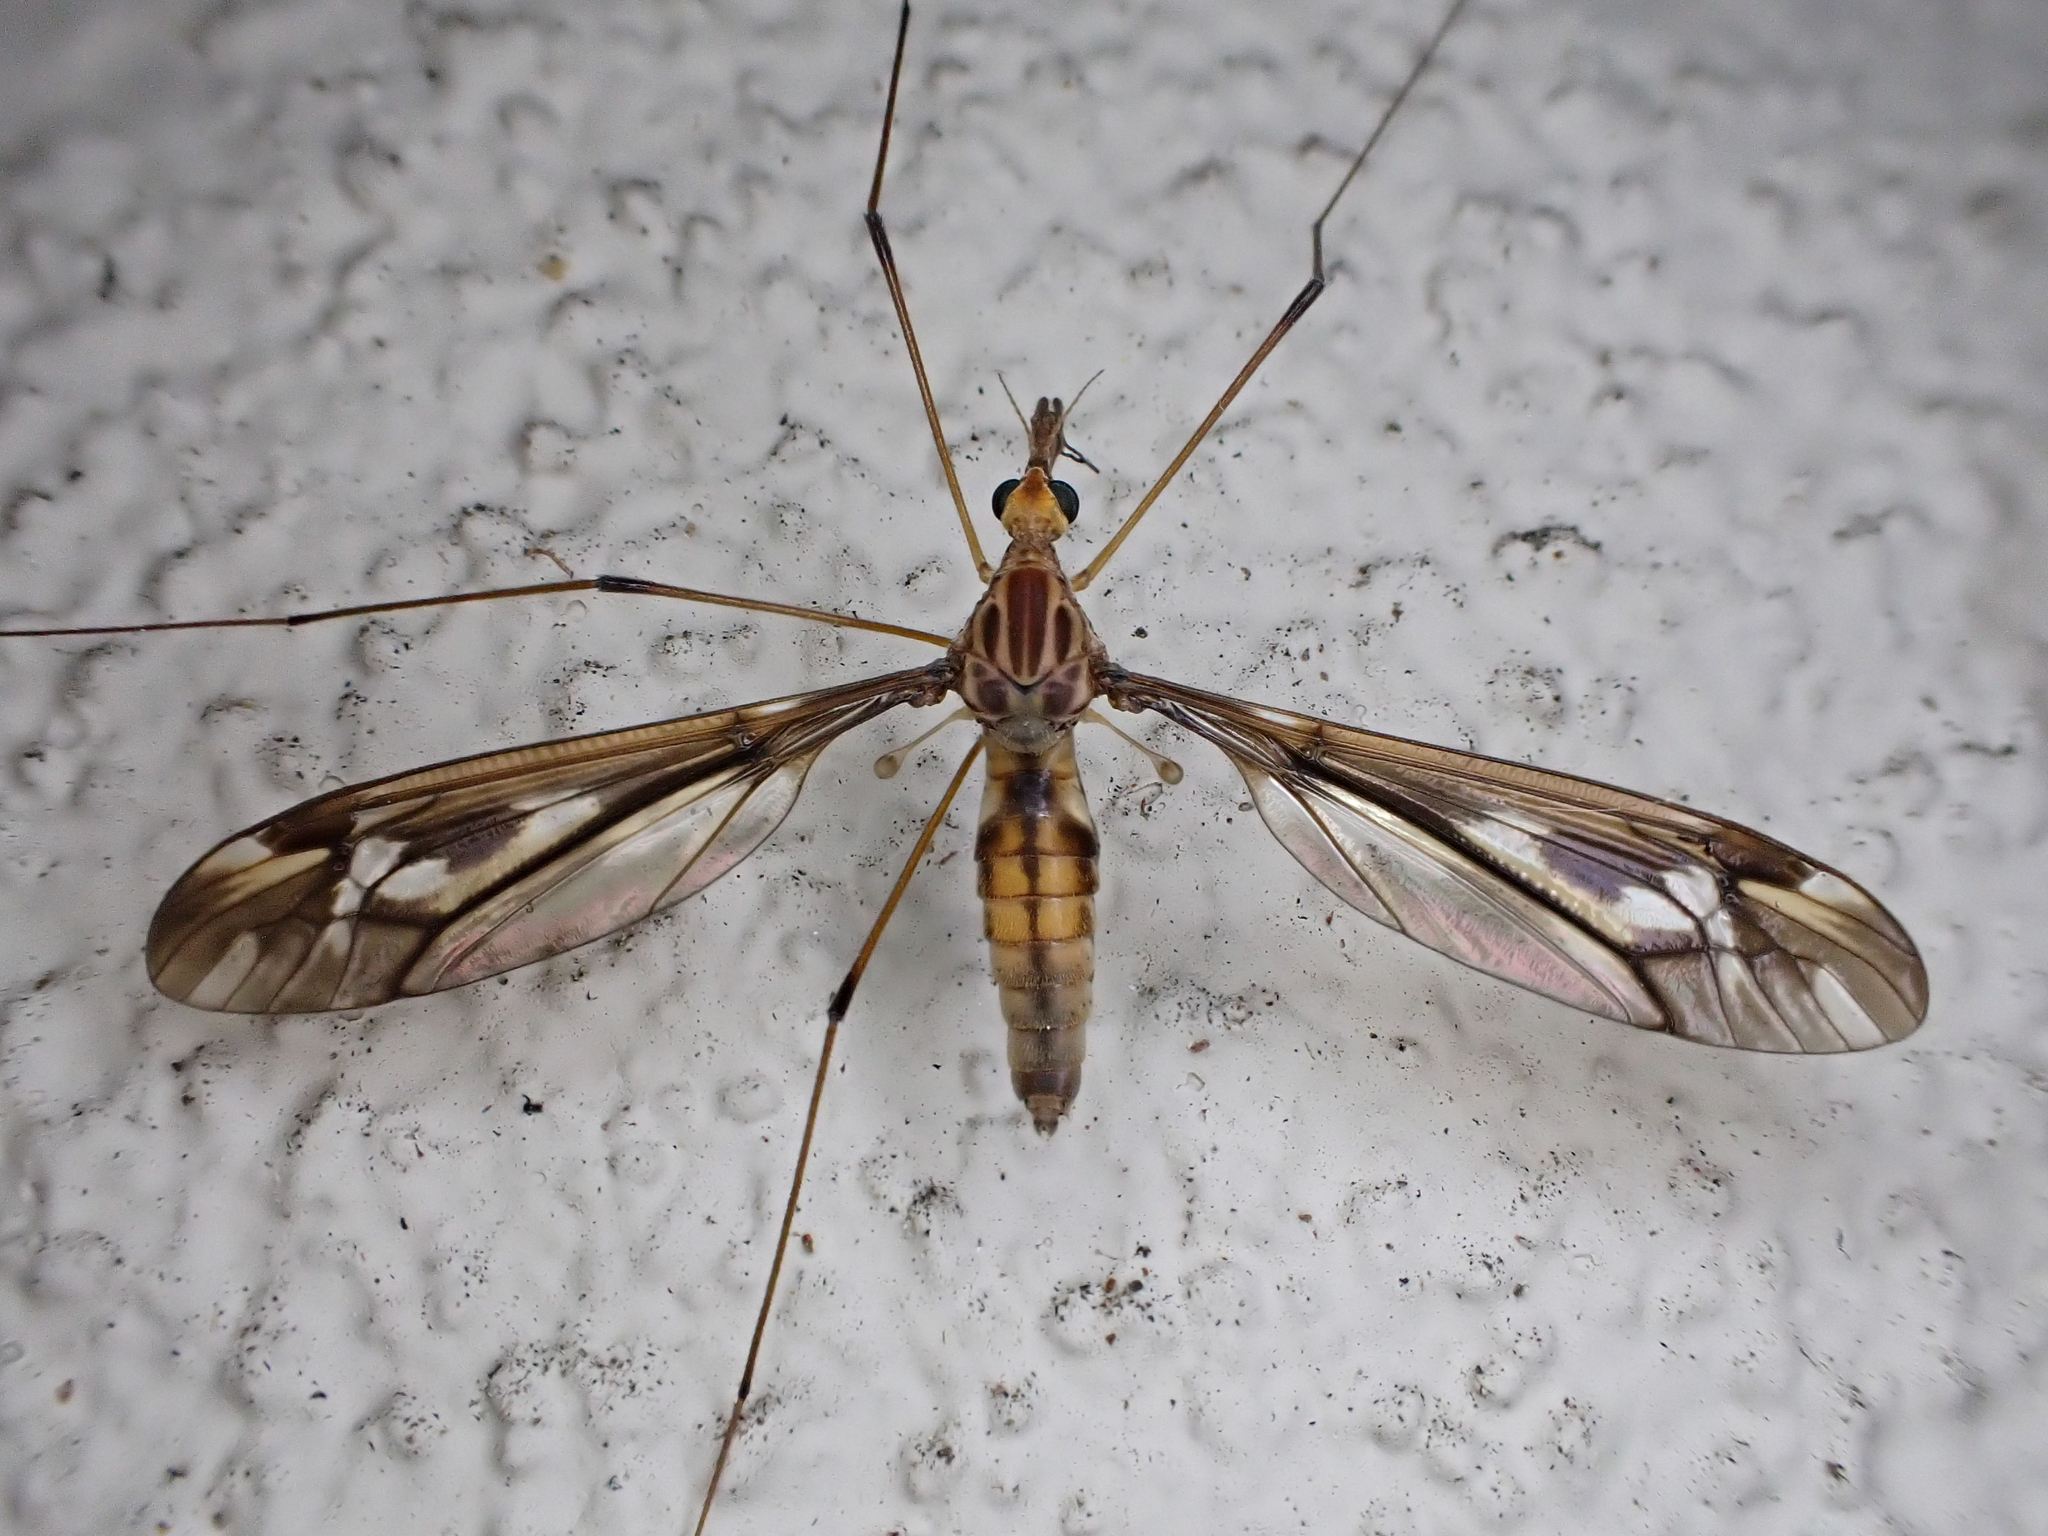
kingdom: Animalia
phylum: Arthropoda
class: Insecta
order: Diptera
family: Tipulidae
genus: Leptotarsus
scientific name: Leptotarsus huttoni
